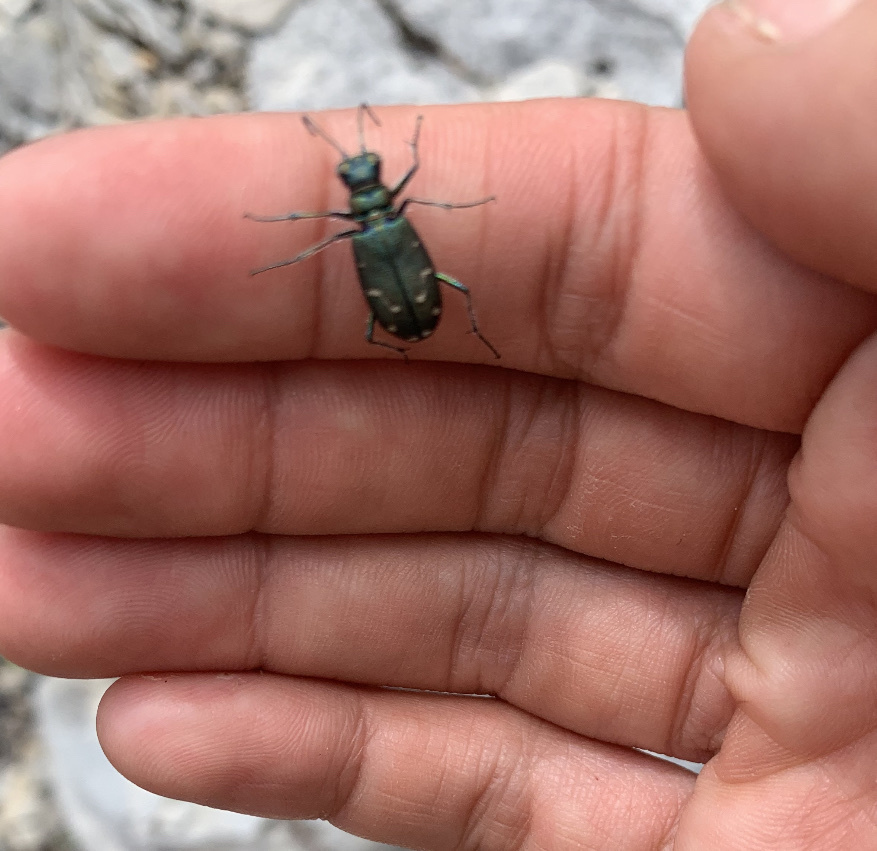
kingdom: Animalia
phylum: Arthropoda
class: Insecta
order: Coleoptera
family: Carabidae
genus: Cicindela
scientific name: Cicindela oregona
